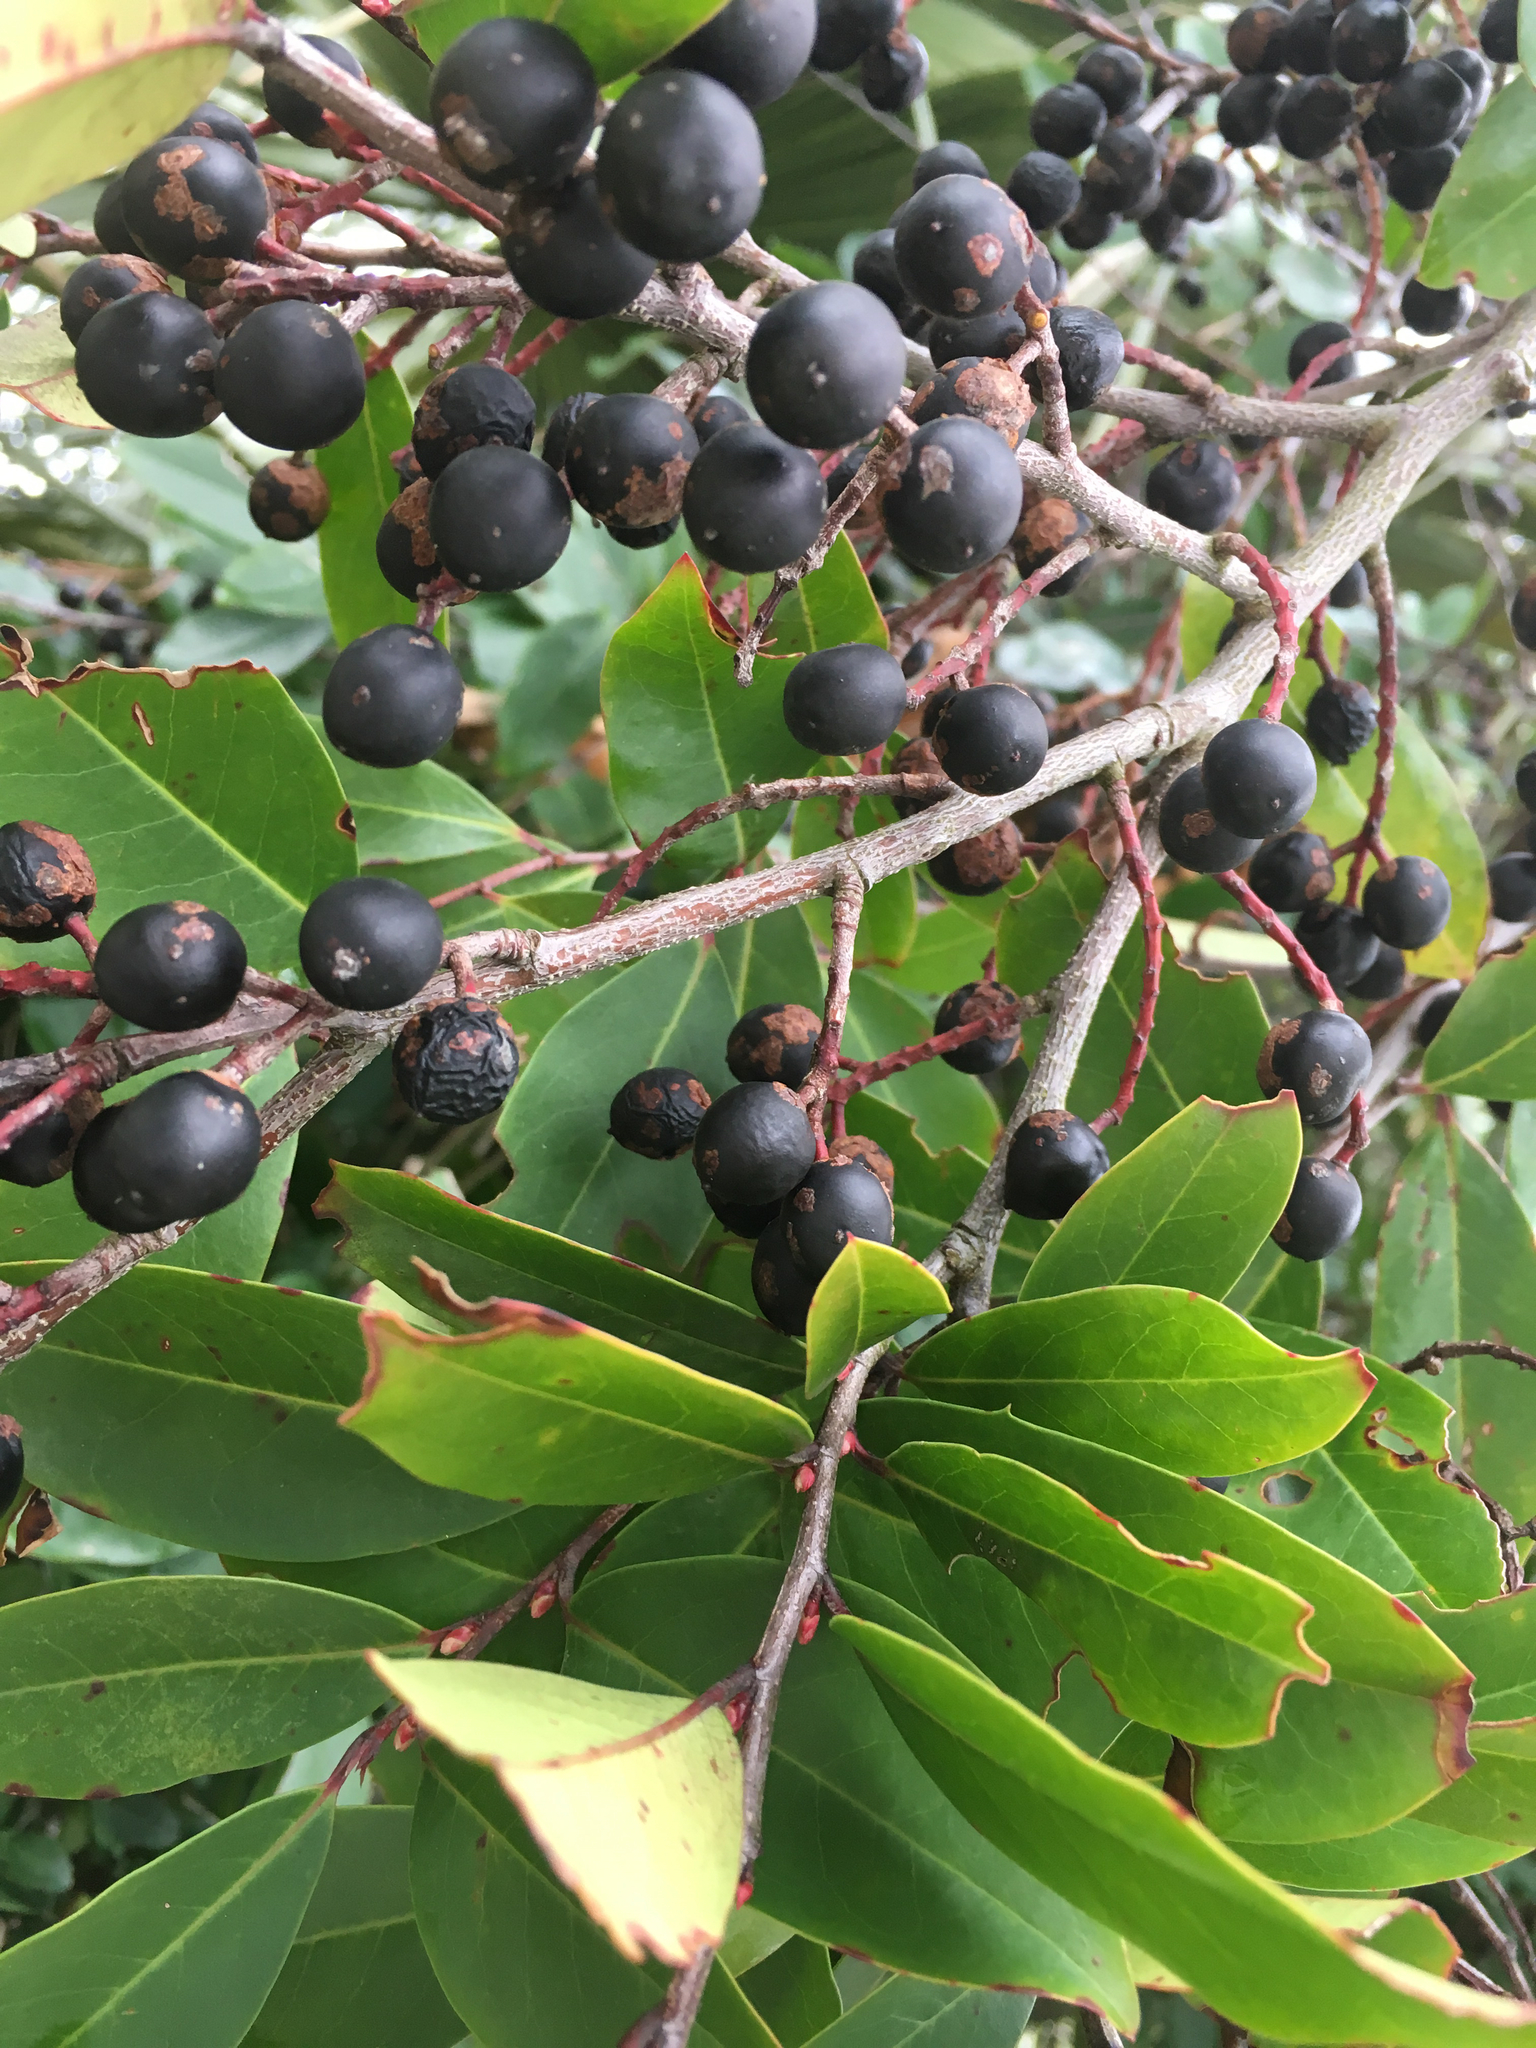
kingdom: Plantae
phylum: Tracheophyta
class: Magnoliopsida
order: Rosales
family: Rosaceae
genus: Prunus
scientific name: Prunus caroliniana
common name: Carolina laurel cherry
